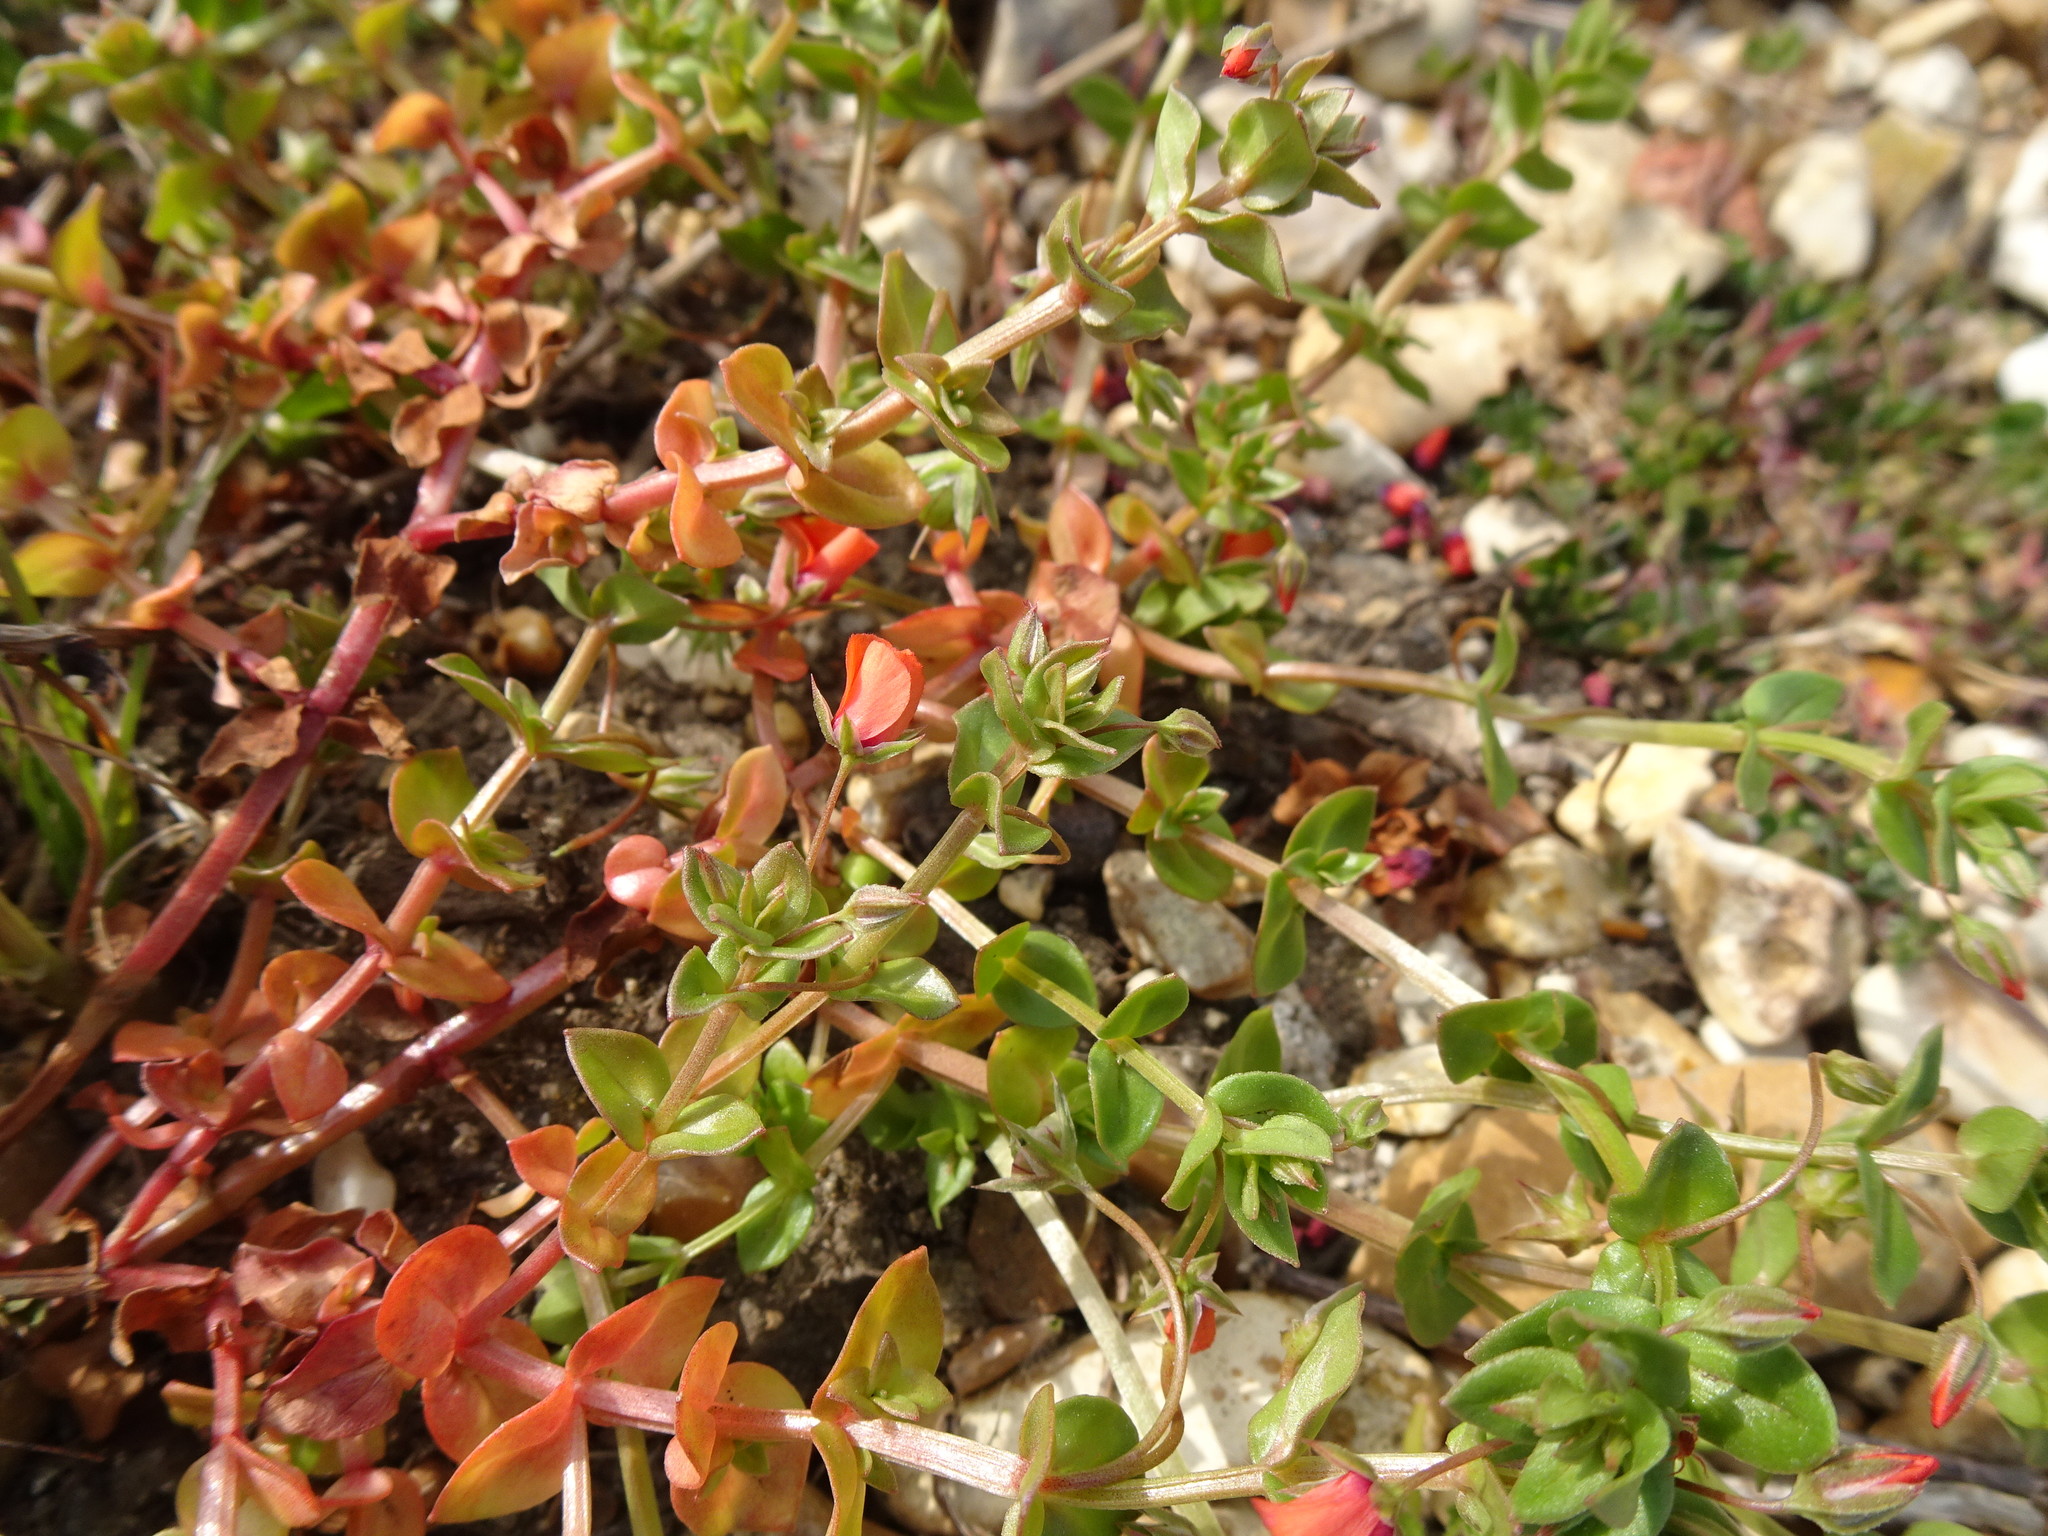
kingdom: Plantae
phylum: Tracheophyta
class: Magnoliopsida
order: Ericales
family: Primulaceae
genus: Lysimachia
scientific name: Lysimachia arvensis
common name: Scarlet pimpernel
